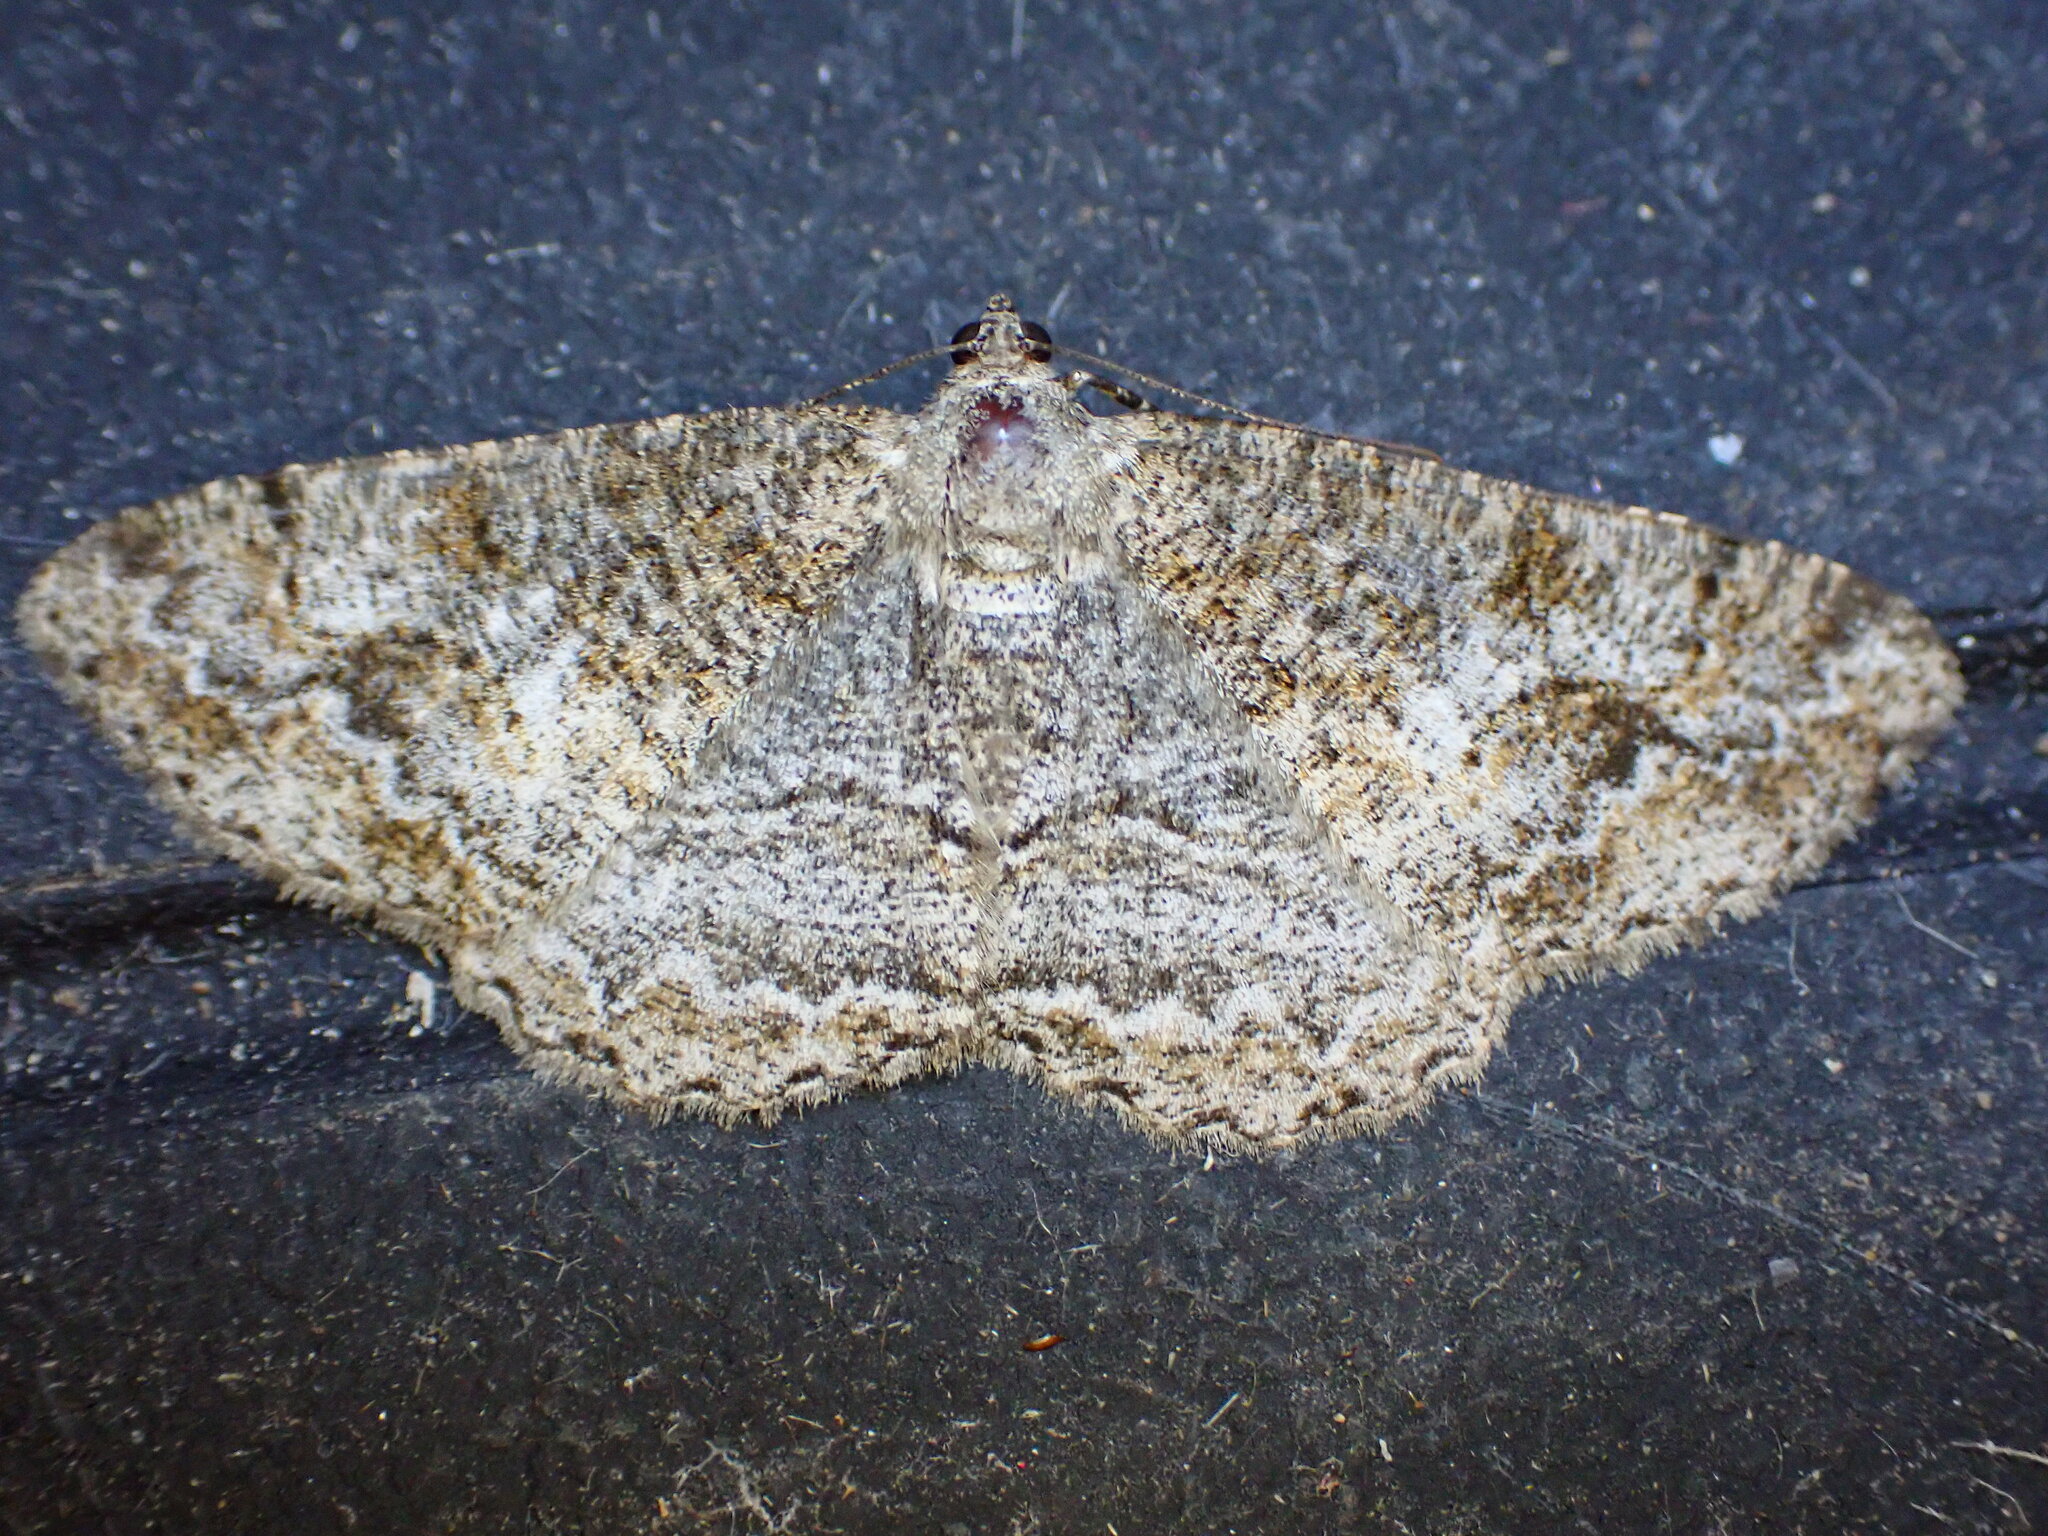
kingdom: Animalia
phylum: Arthropoda
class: Insecta
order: Lepidoptera
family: Geometridae
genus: Alcis
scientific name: Alcis repandata
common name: Mottled beauty
